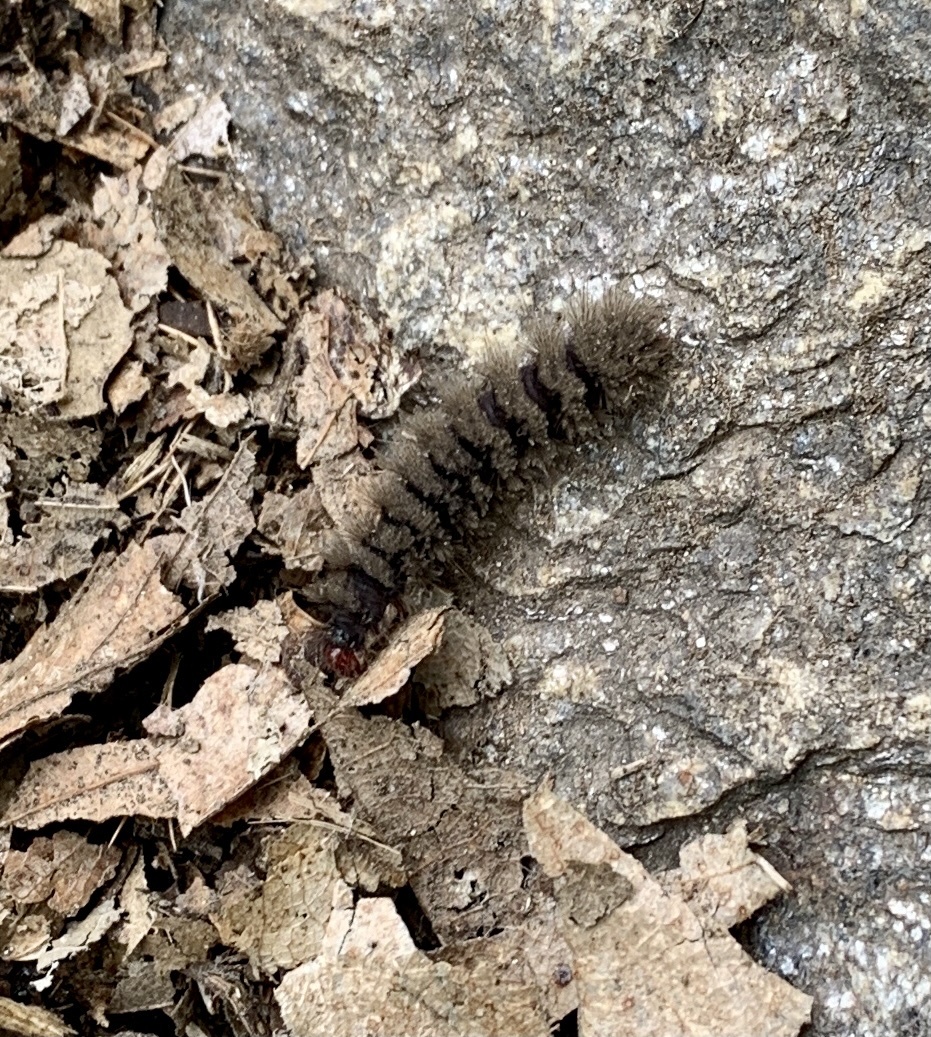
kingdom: Animalia
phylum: Arthropoda
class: Insecta
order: Lepidoptera
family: Erebidae
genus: Amata
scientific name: Amata phegea
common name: Nine-spotted
